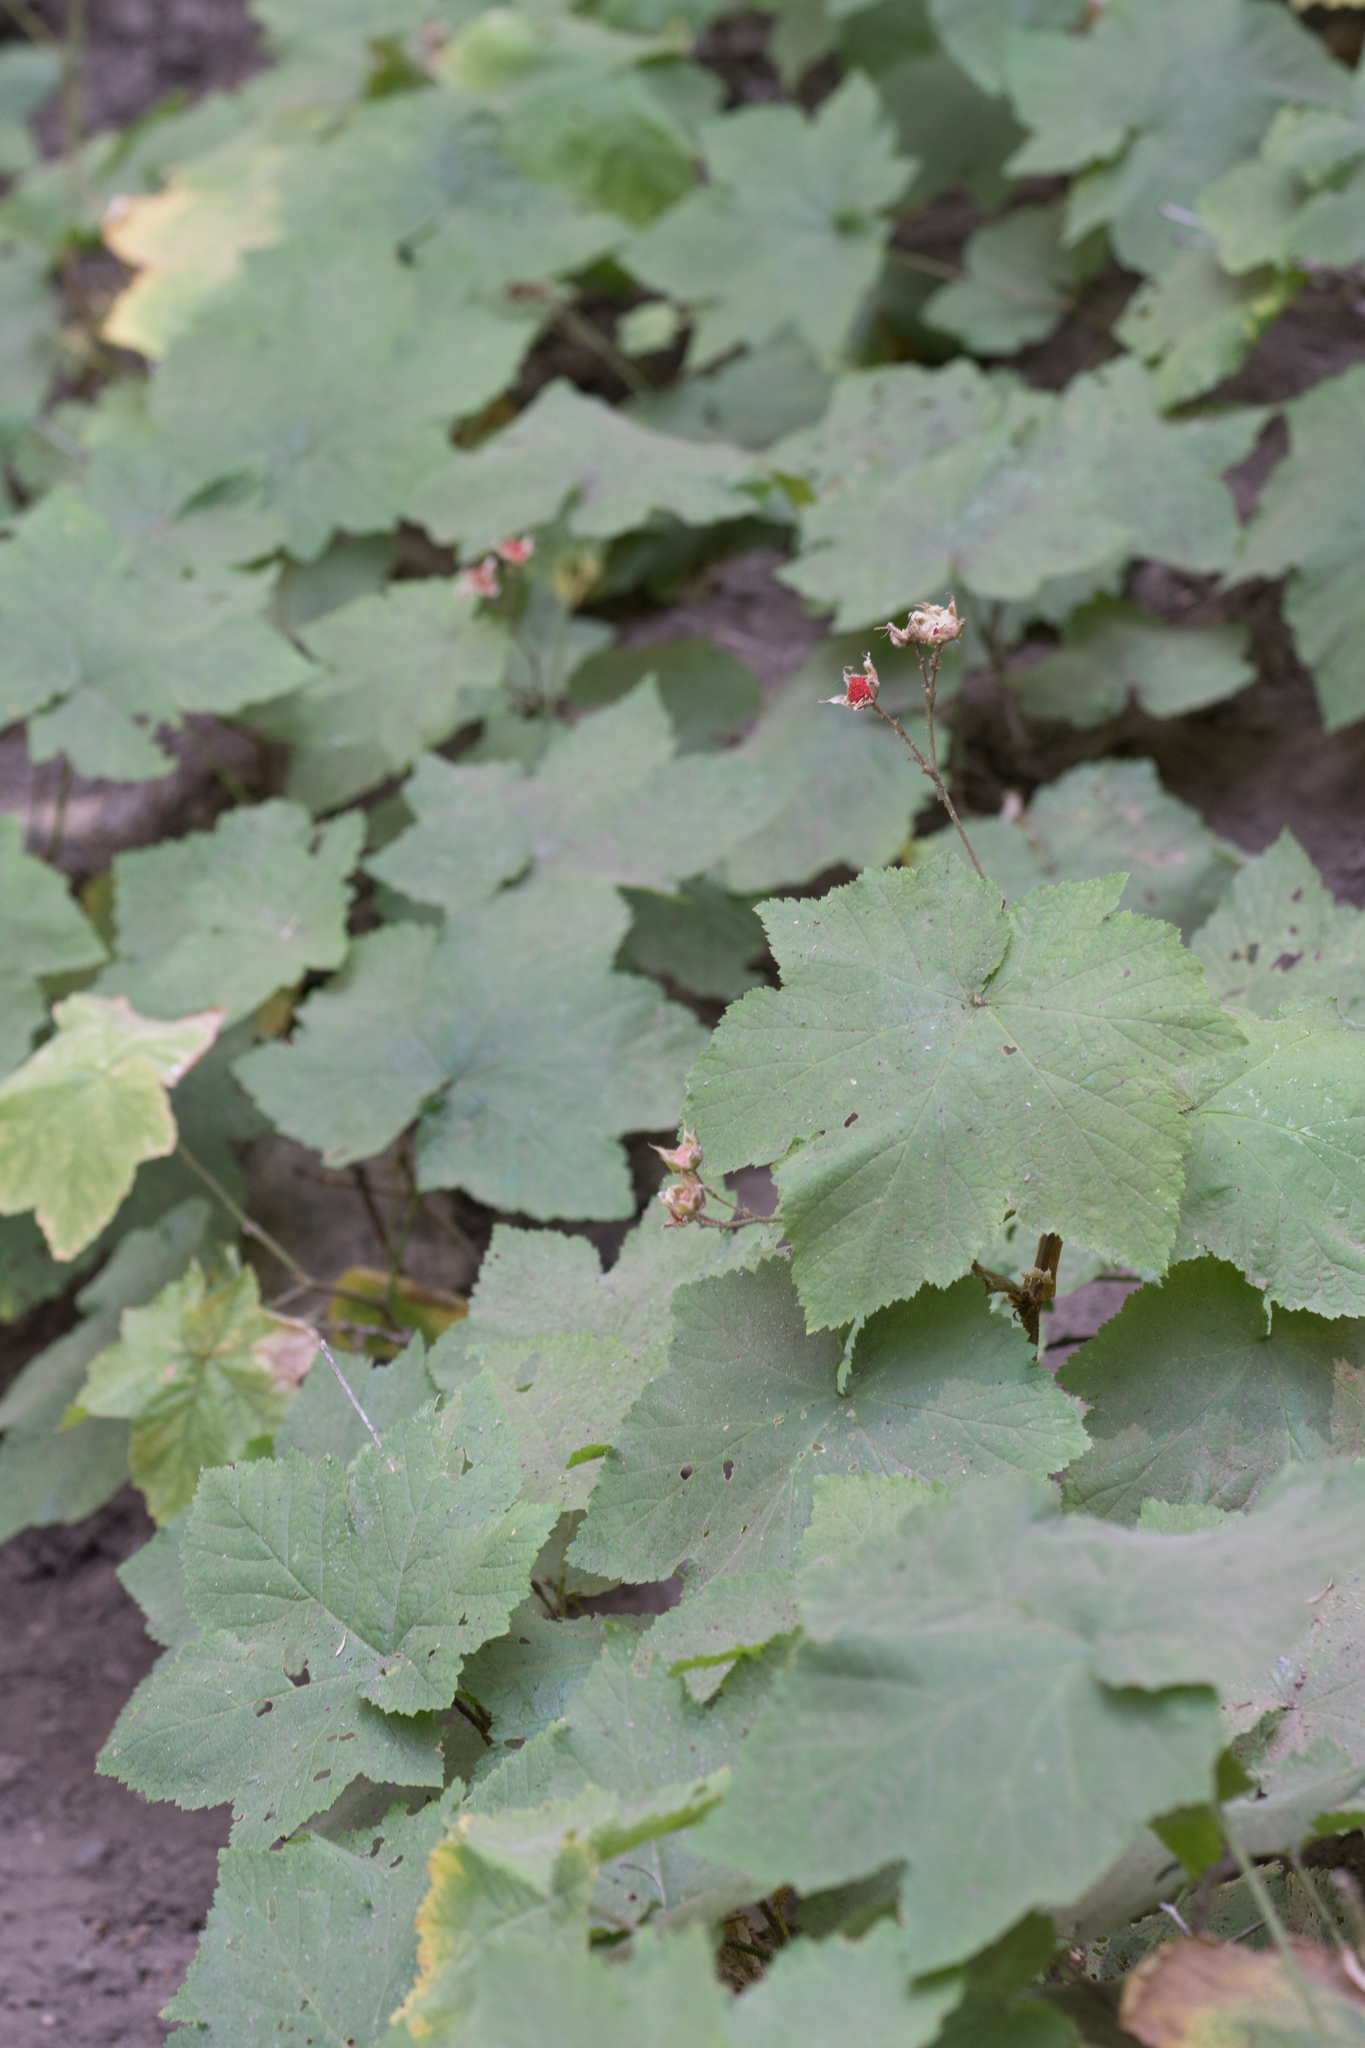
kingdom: Plantae
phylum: Tracheophyta
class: Magnoliopsida
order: Rosales
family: Rosaceae
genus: Rubus
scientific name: Rubus parviflorus
